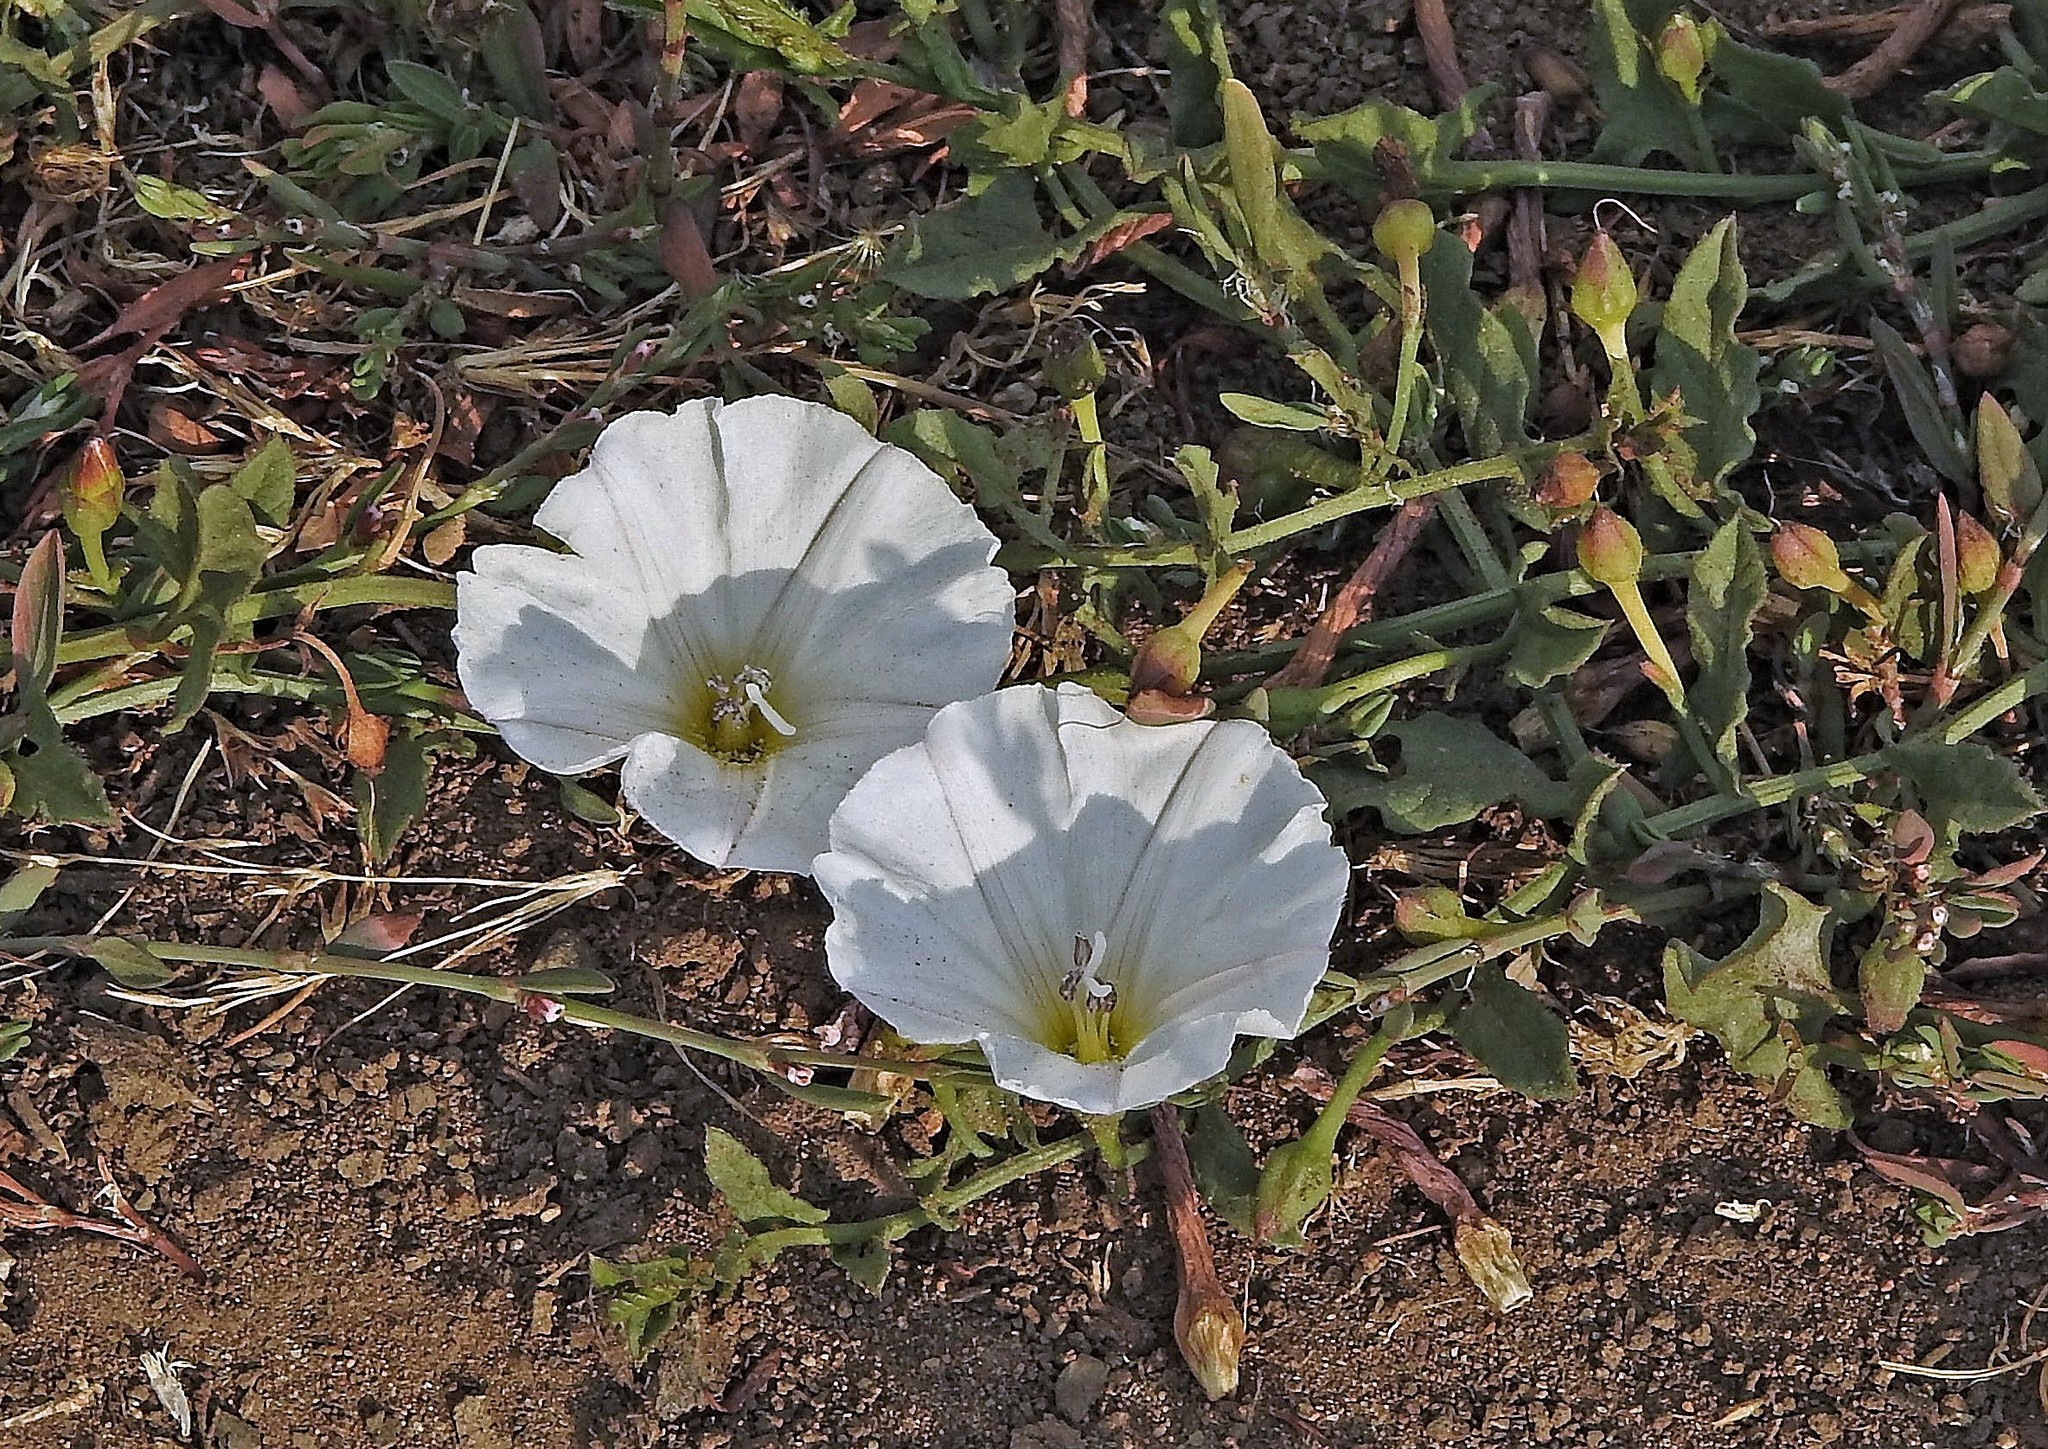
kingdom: Plantae
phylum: Tracheophyta
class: Magnoliopsida
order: Solanales
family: Convolvulaceae
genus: Convolvulus
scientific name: Convolvulus arvensis
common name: Field bindweed
